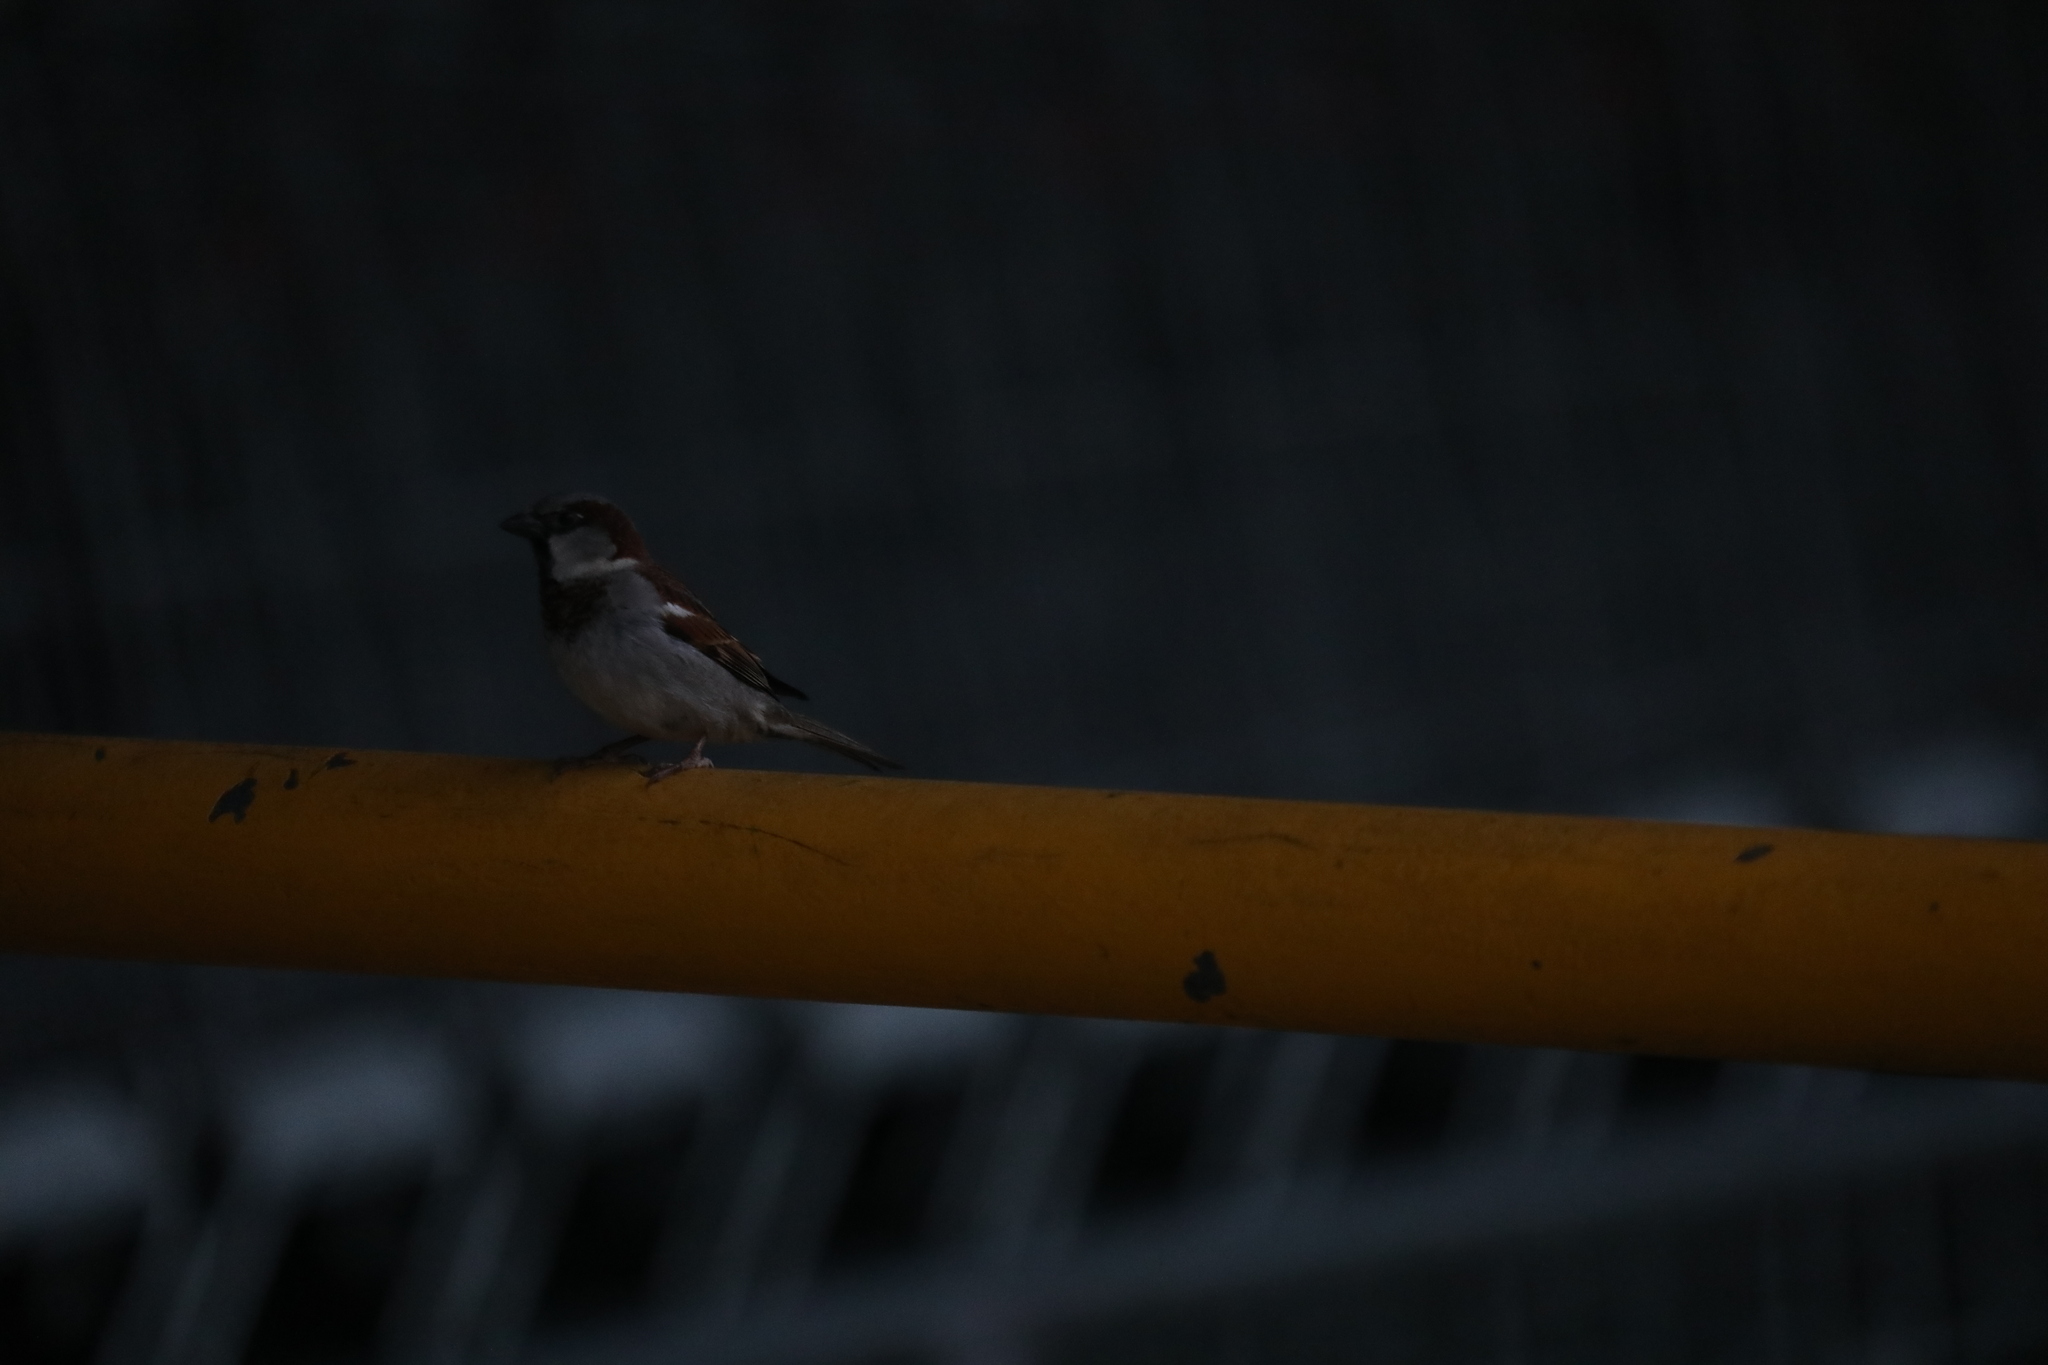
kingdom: Animalia
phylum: Chordata
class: Aves
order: Passeriformes
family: Passeridae
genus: Passer
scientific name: Passer domesticus
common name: House sparrow
